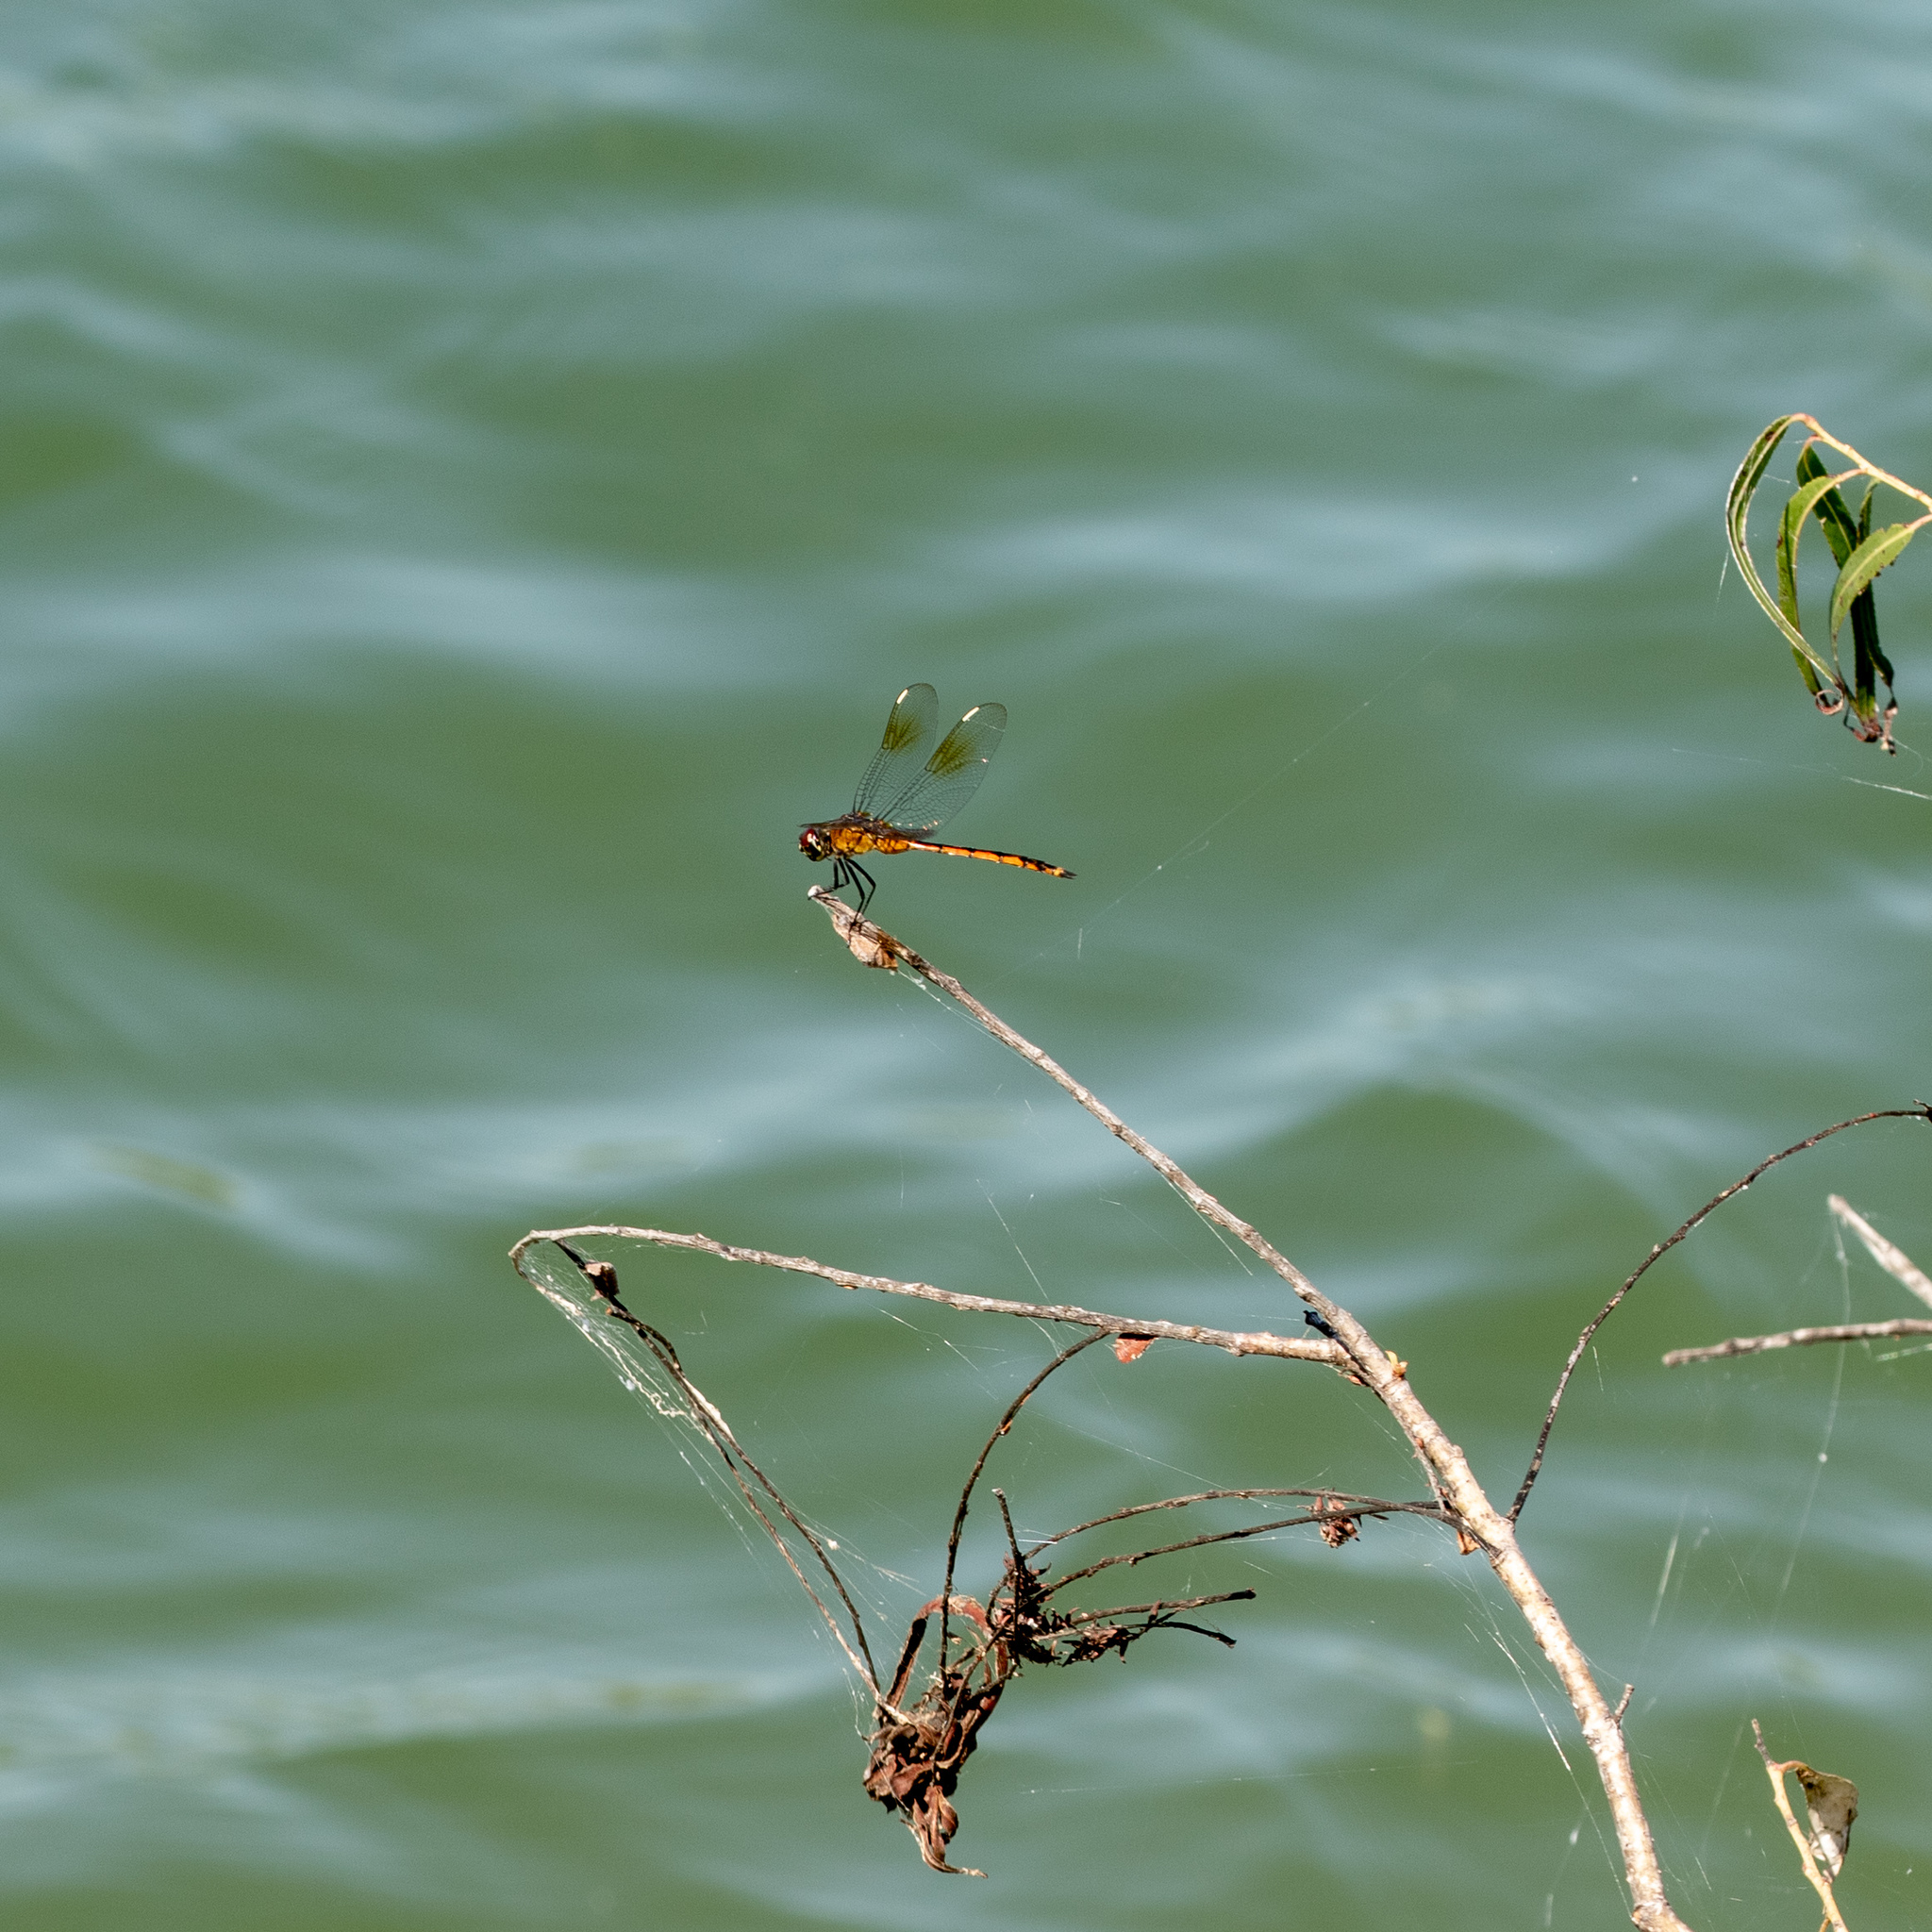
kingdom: Animalia
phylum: Arthropoda
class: Insecta
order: Odonata
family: Libellulidae
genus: Brachymesia
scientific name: Brachymesia gravida
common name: Four-spotted pennant
